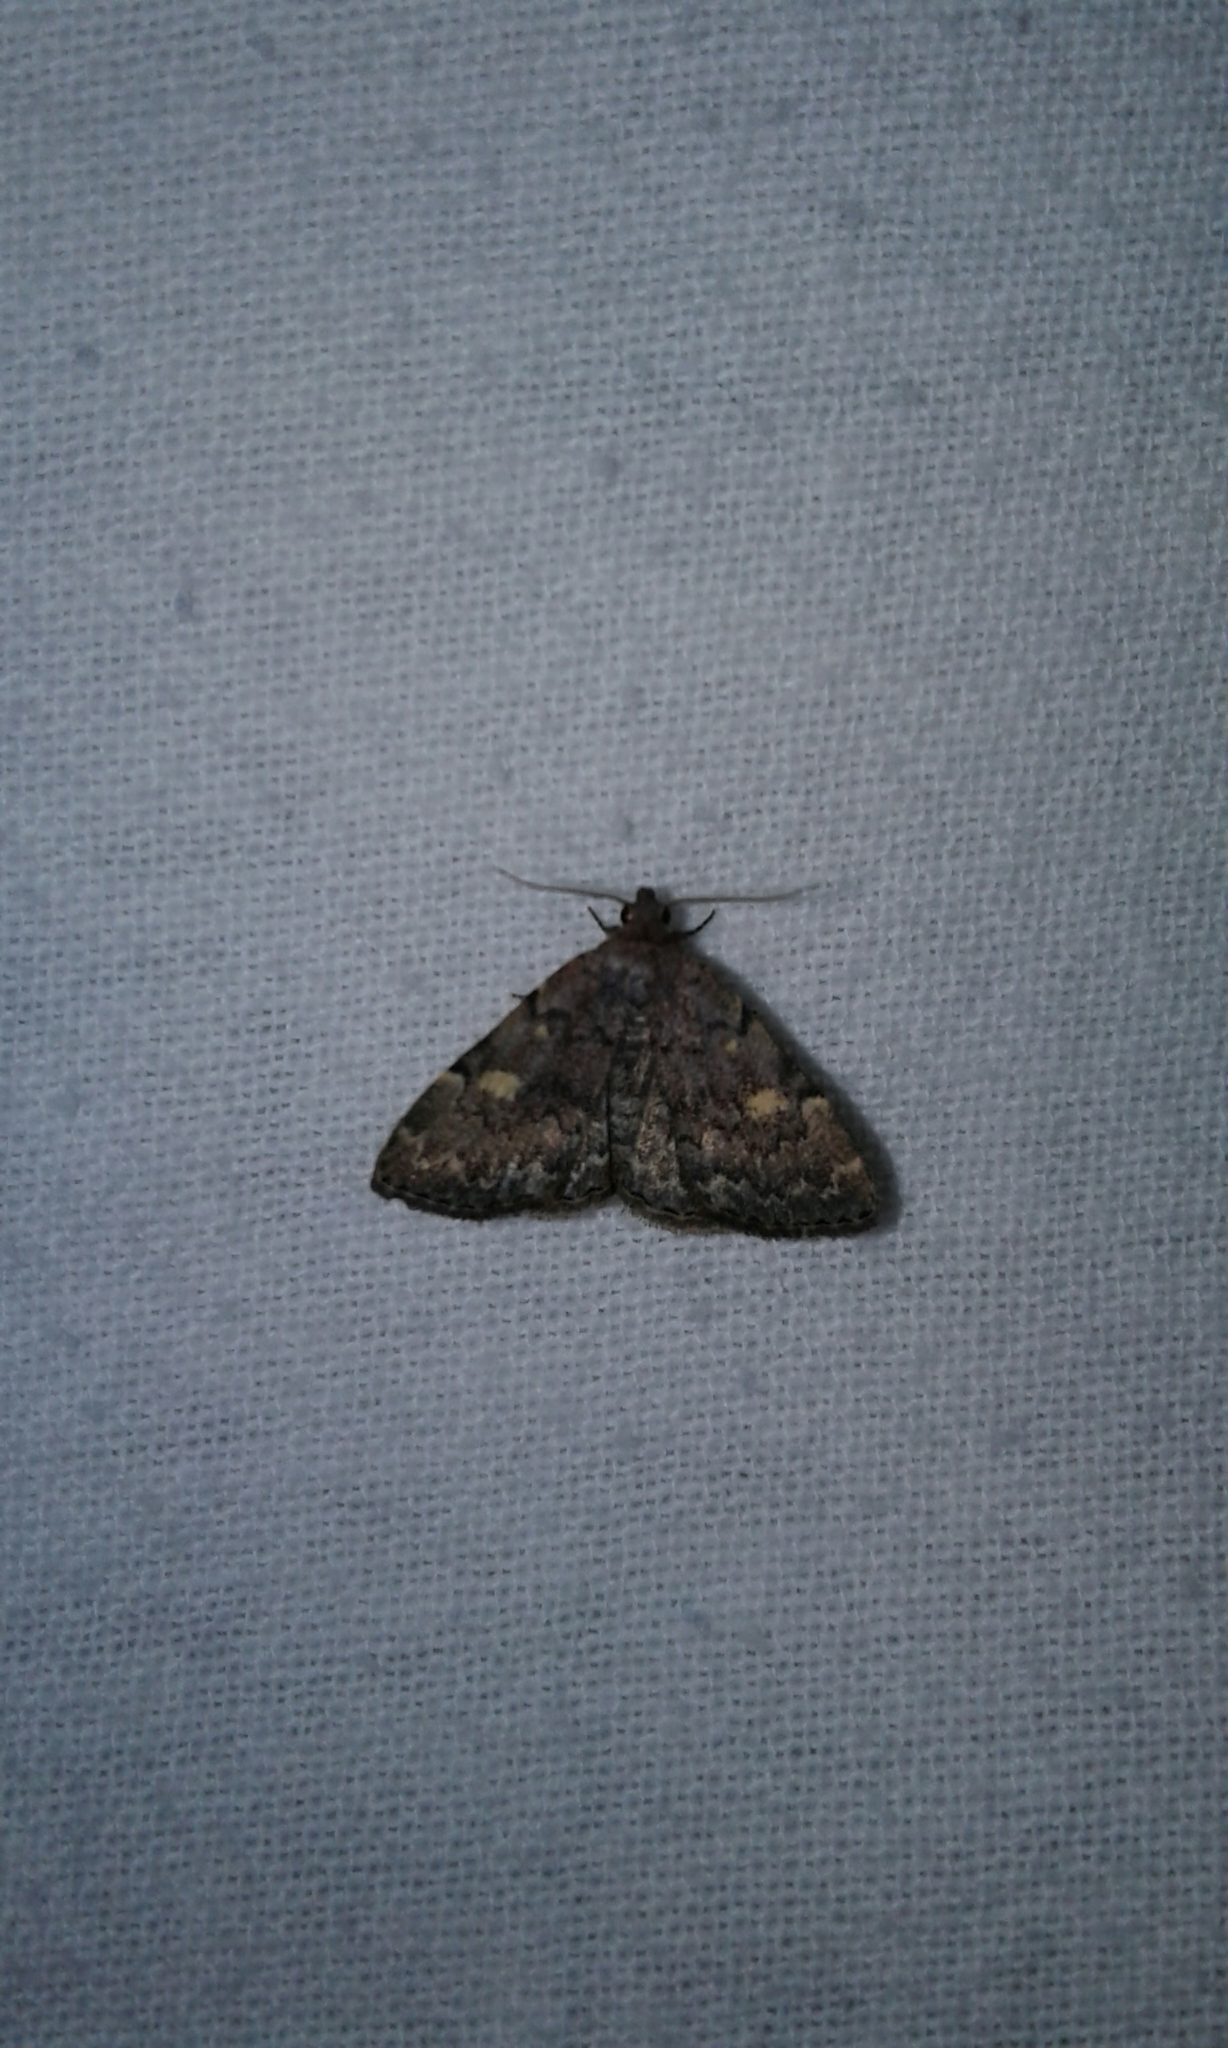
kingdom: Animalia
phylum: Arthropoda
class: Insecta
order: Lepidoptera
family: Erebidae
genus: Idia
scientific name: Idia aemula
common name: Common idia moth
